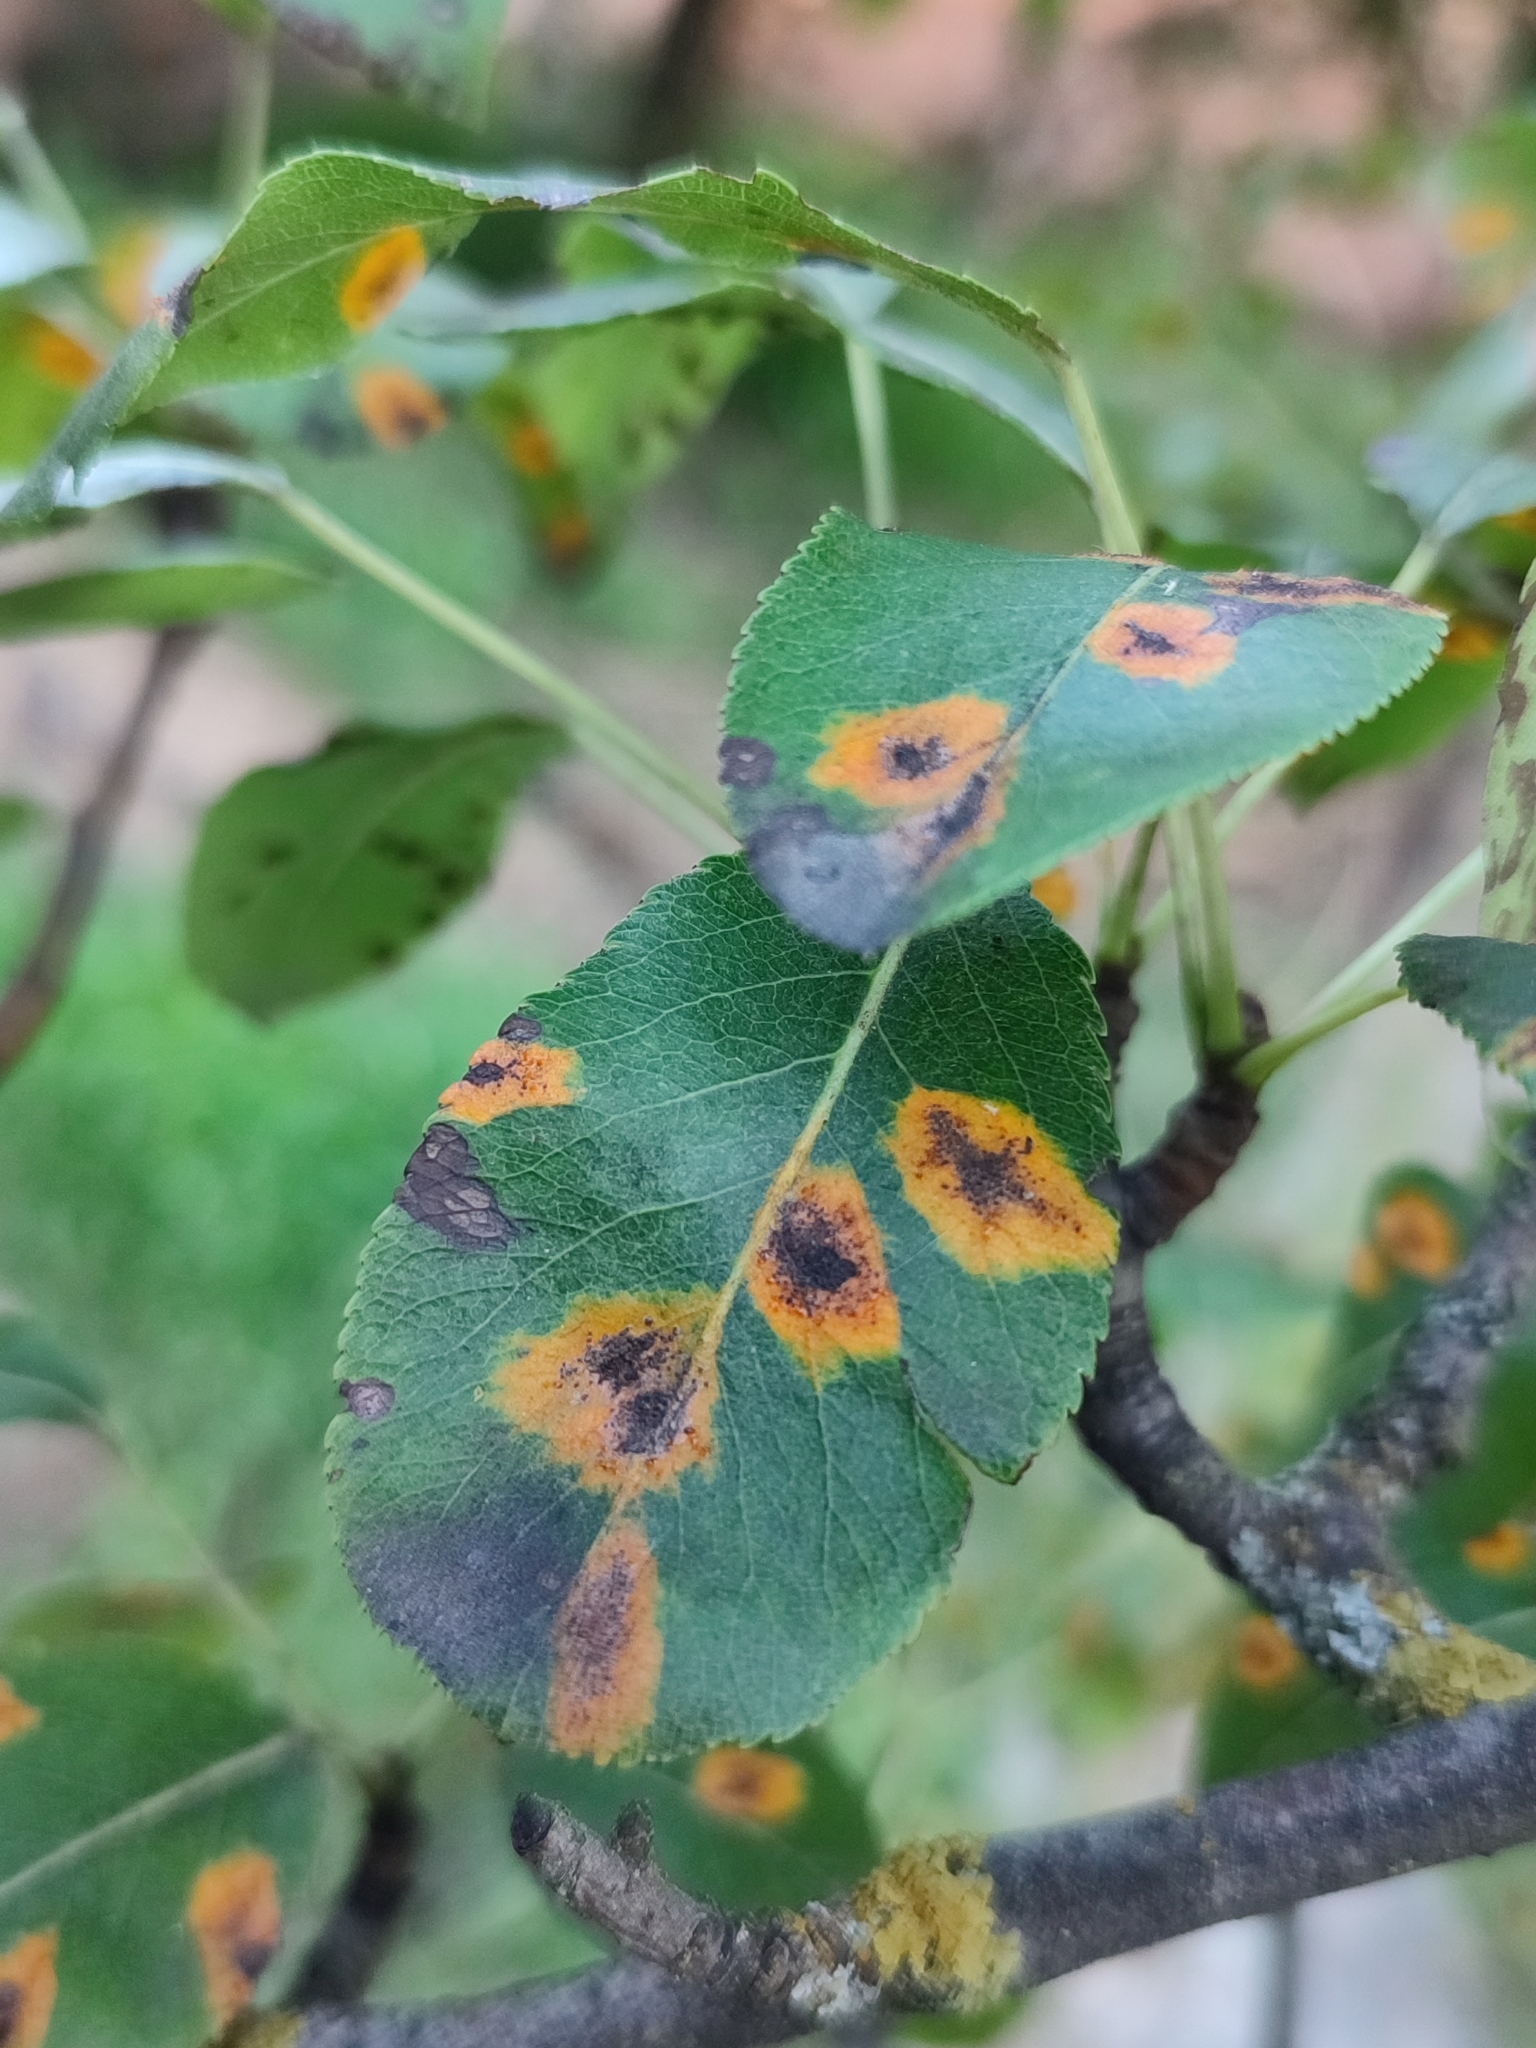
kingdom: Fungi
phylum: Basidiomycota
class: Pucciniomycetes
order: Pucciniales
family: Gymnosporangiaceae
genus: Gymnosporangium
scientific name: Gymnosporangium sabinae
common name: Pear trellis rust fungus
